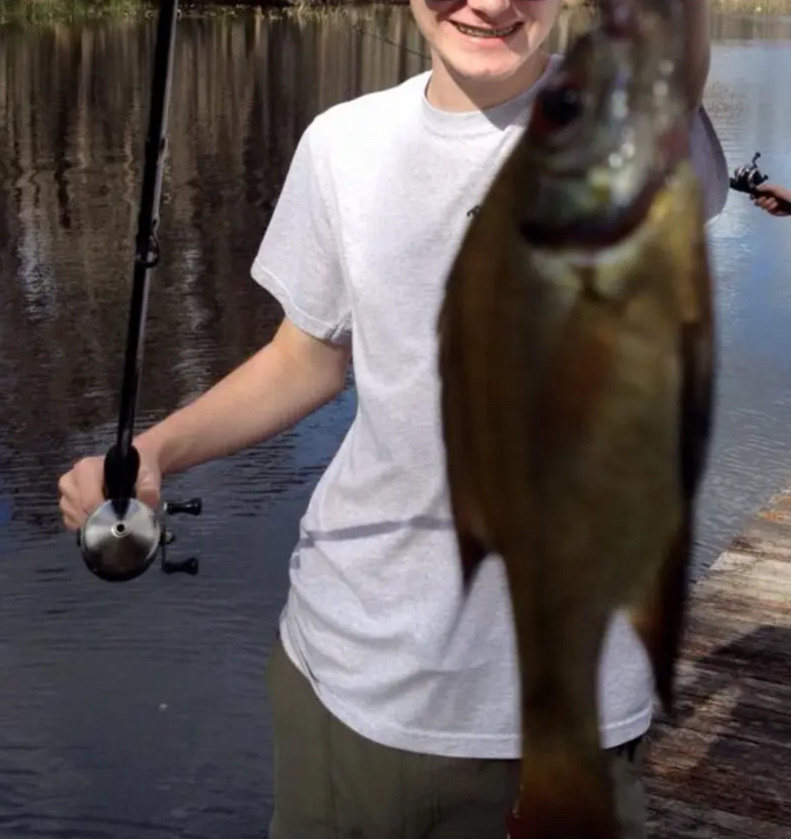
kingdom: Animalia
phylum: Chordata
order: Perciformes
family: Centrarchidae
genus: Lepomis
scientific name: Lepomis macrochirus
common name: Bluegill
